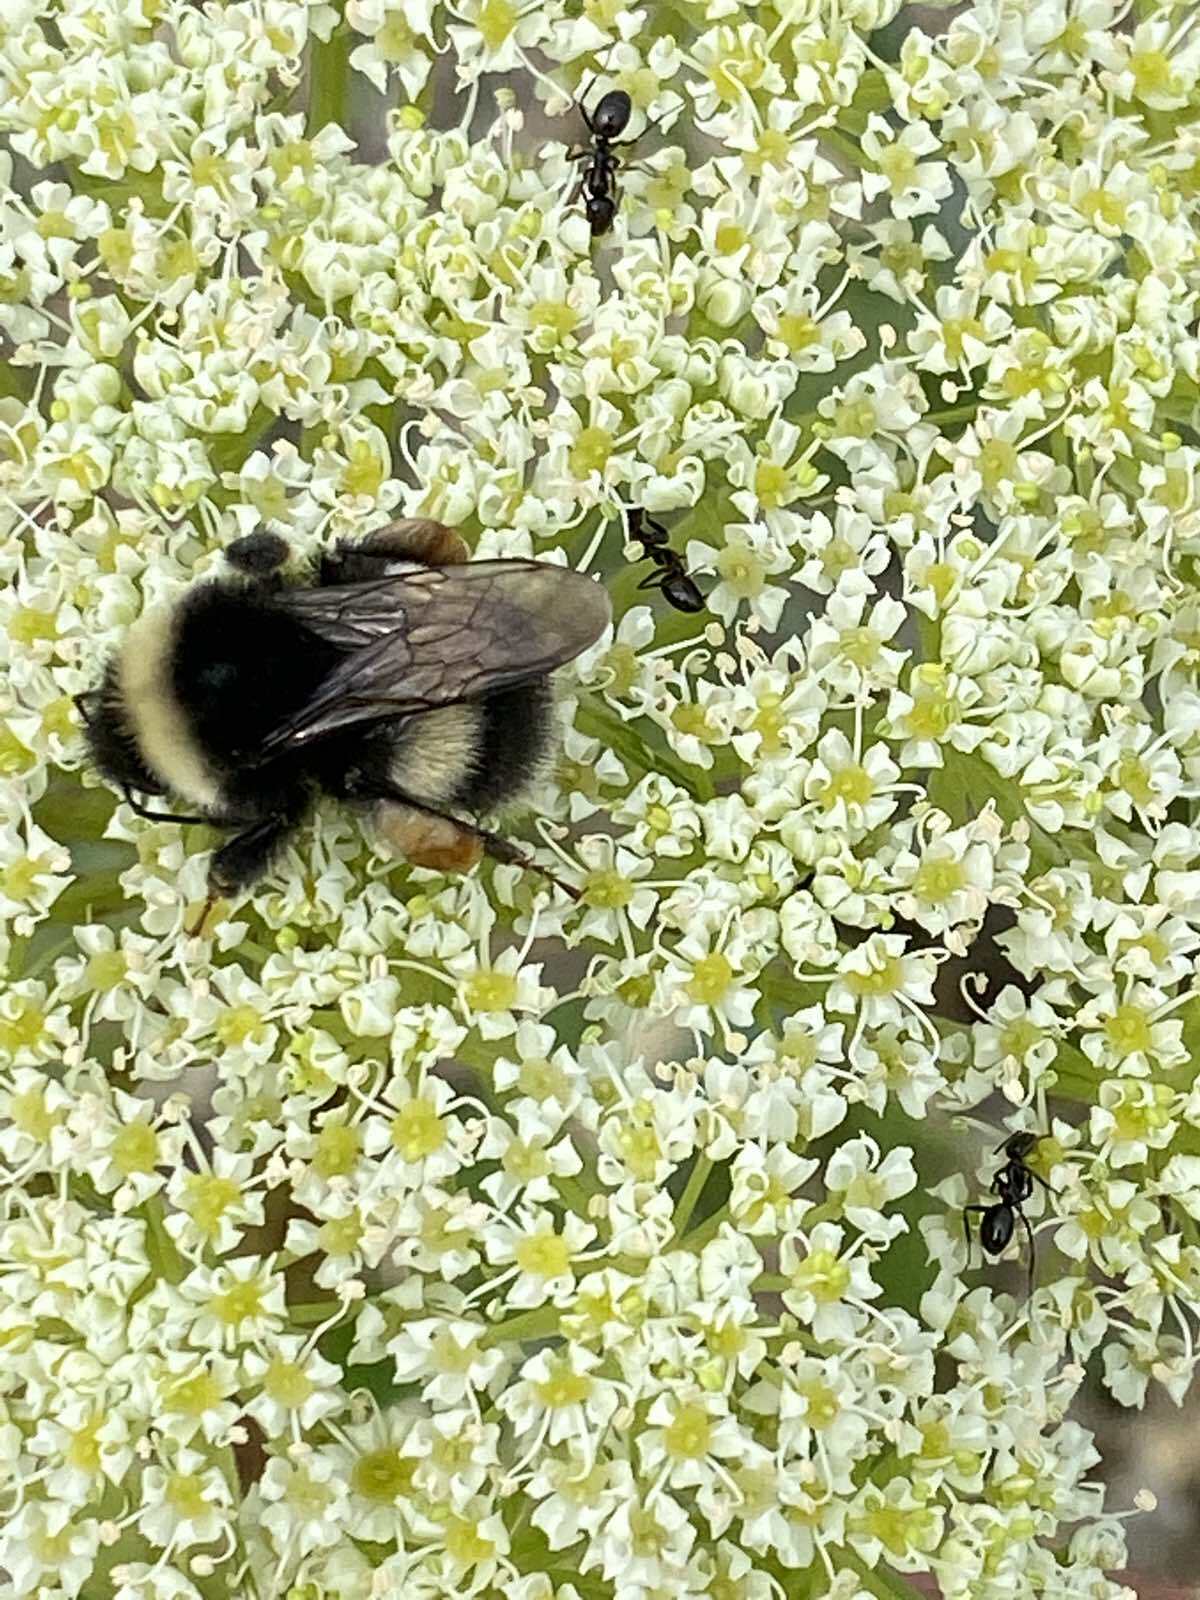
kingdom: Animalia
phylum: Arthropoda
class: Insecta
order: Hymenoptera
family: Apidae
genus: Bombus
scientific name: Bombus cryptarum
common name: Cryptic bumblebee
